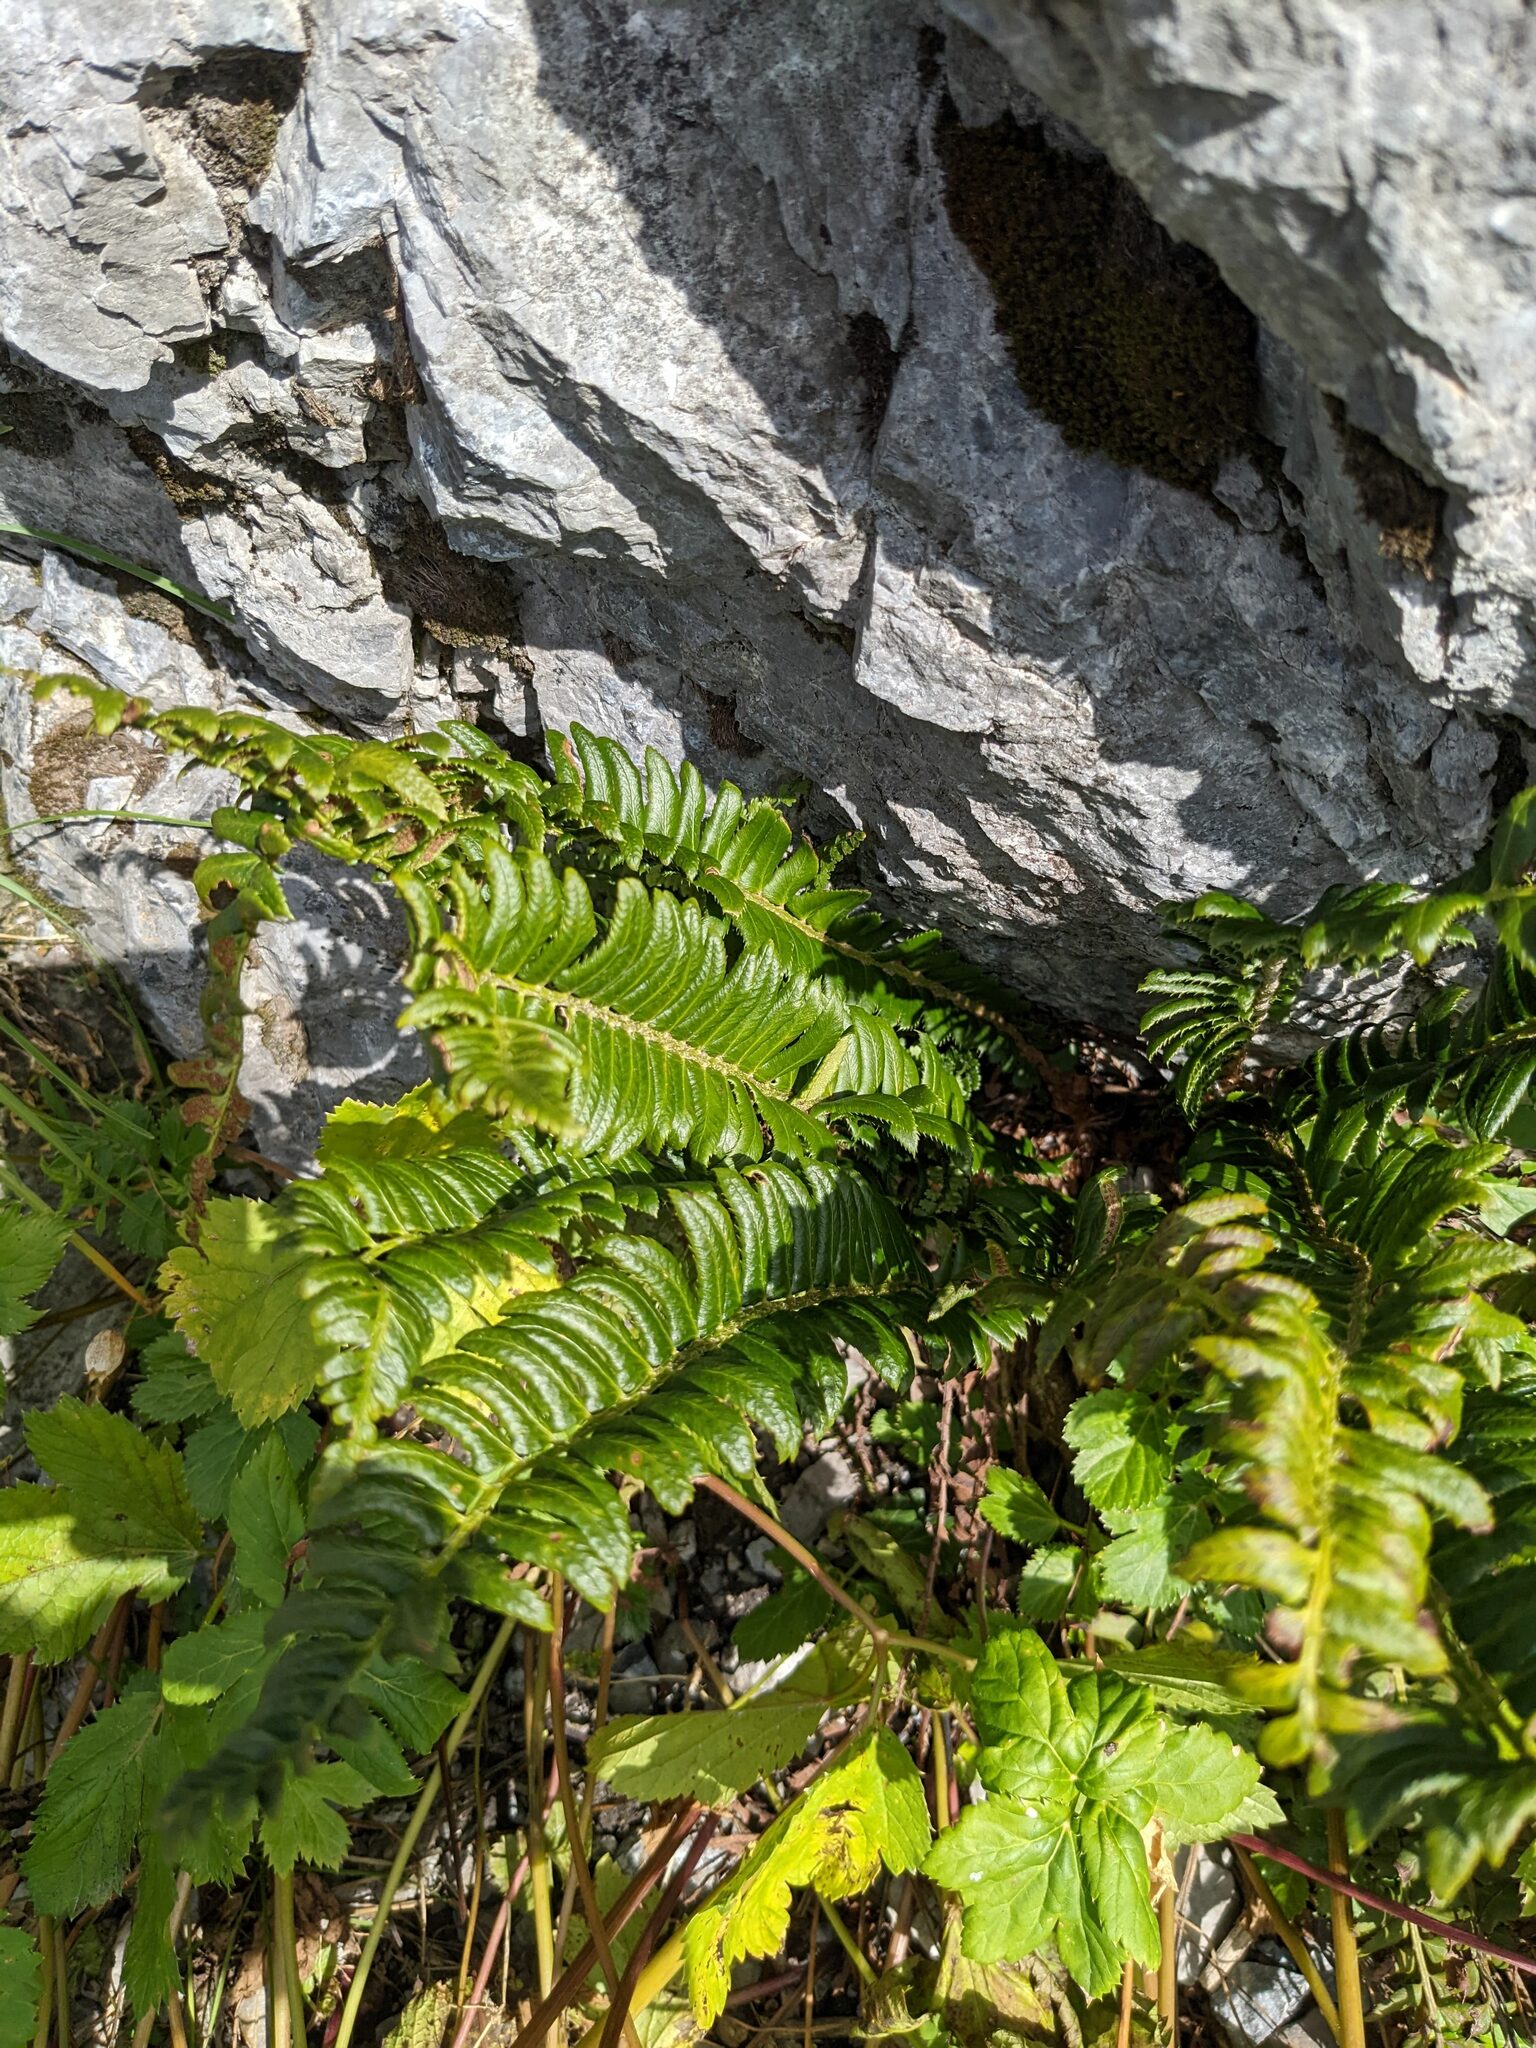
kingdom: Plantae
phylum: Tracheophyta
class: Polypodiopsida
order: Polypodiales
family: Dryopteridaceae
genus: Polystichum
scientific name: Polystichum lonchitis
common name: Holly fern
